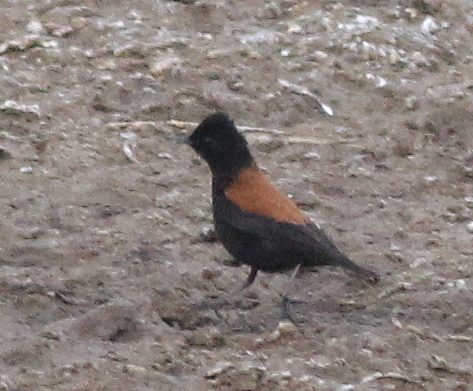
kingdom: Animalia
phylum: Chordata
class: Aves
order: Passeriformes
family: Tyrannidae
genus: Lessonia
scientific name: Lessonia rufa
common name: Austral negrito
